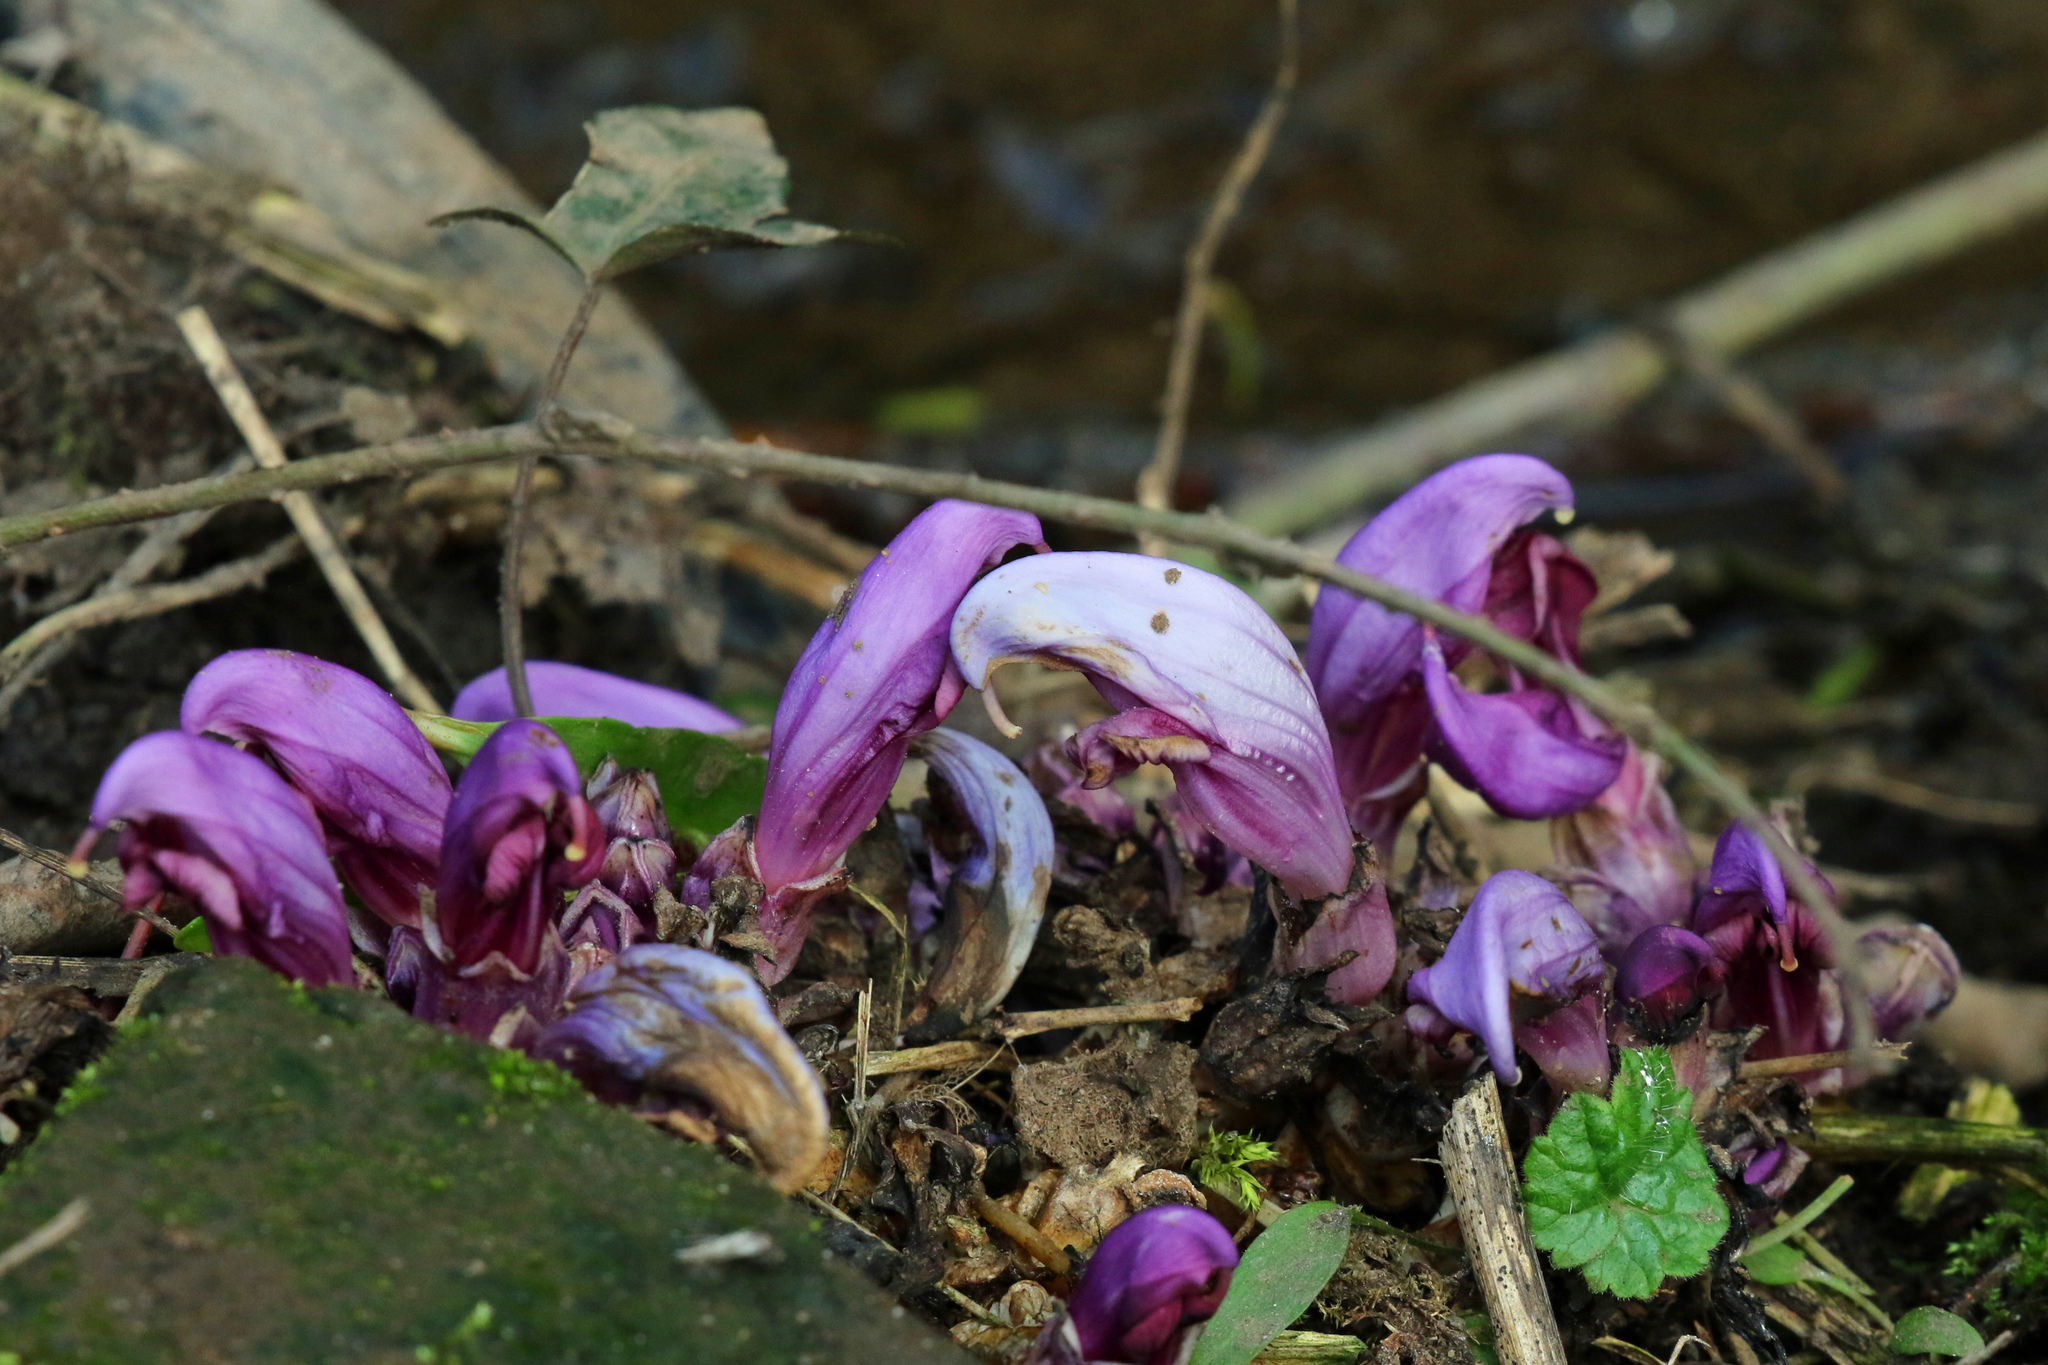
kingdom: Plantae
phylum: Tracheophyta
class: Magnoliopsida
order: Lamiales
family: Orobanchaceae
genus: Lathraea
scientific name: Lathraea clandestina
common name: Purple toothwort
